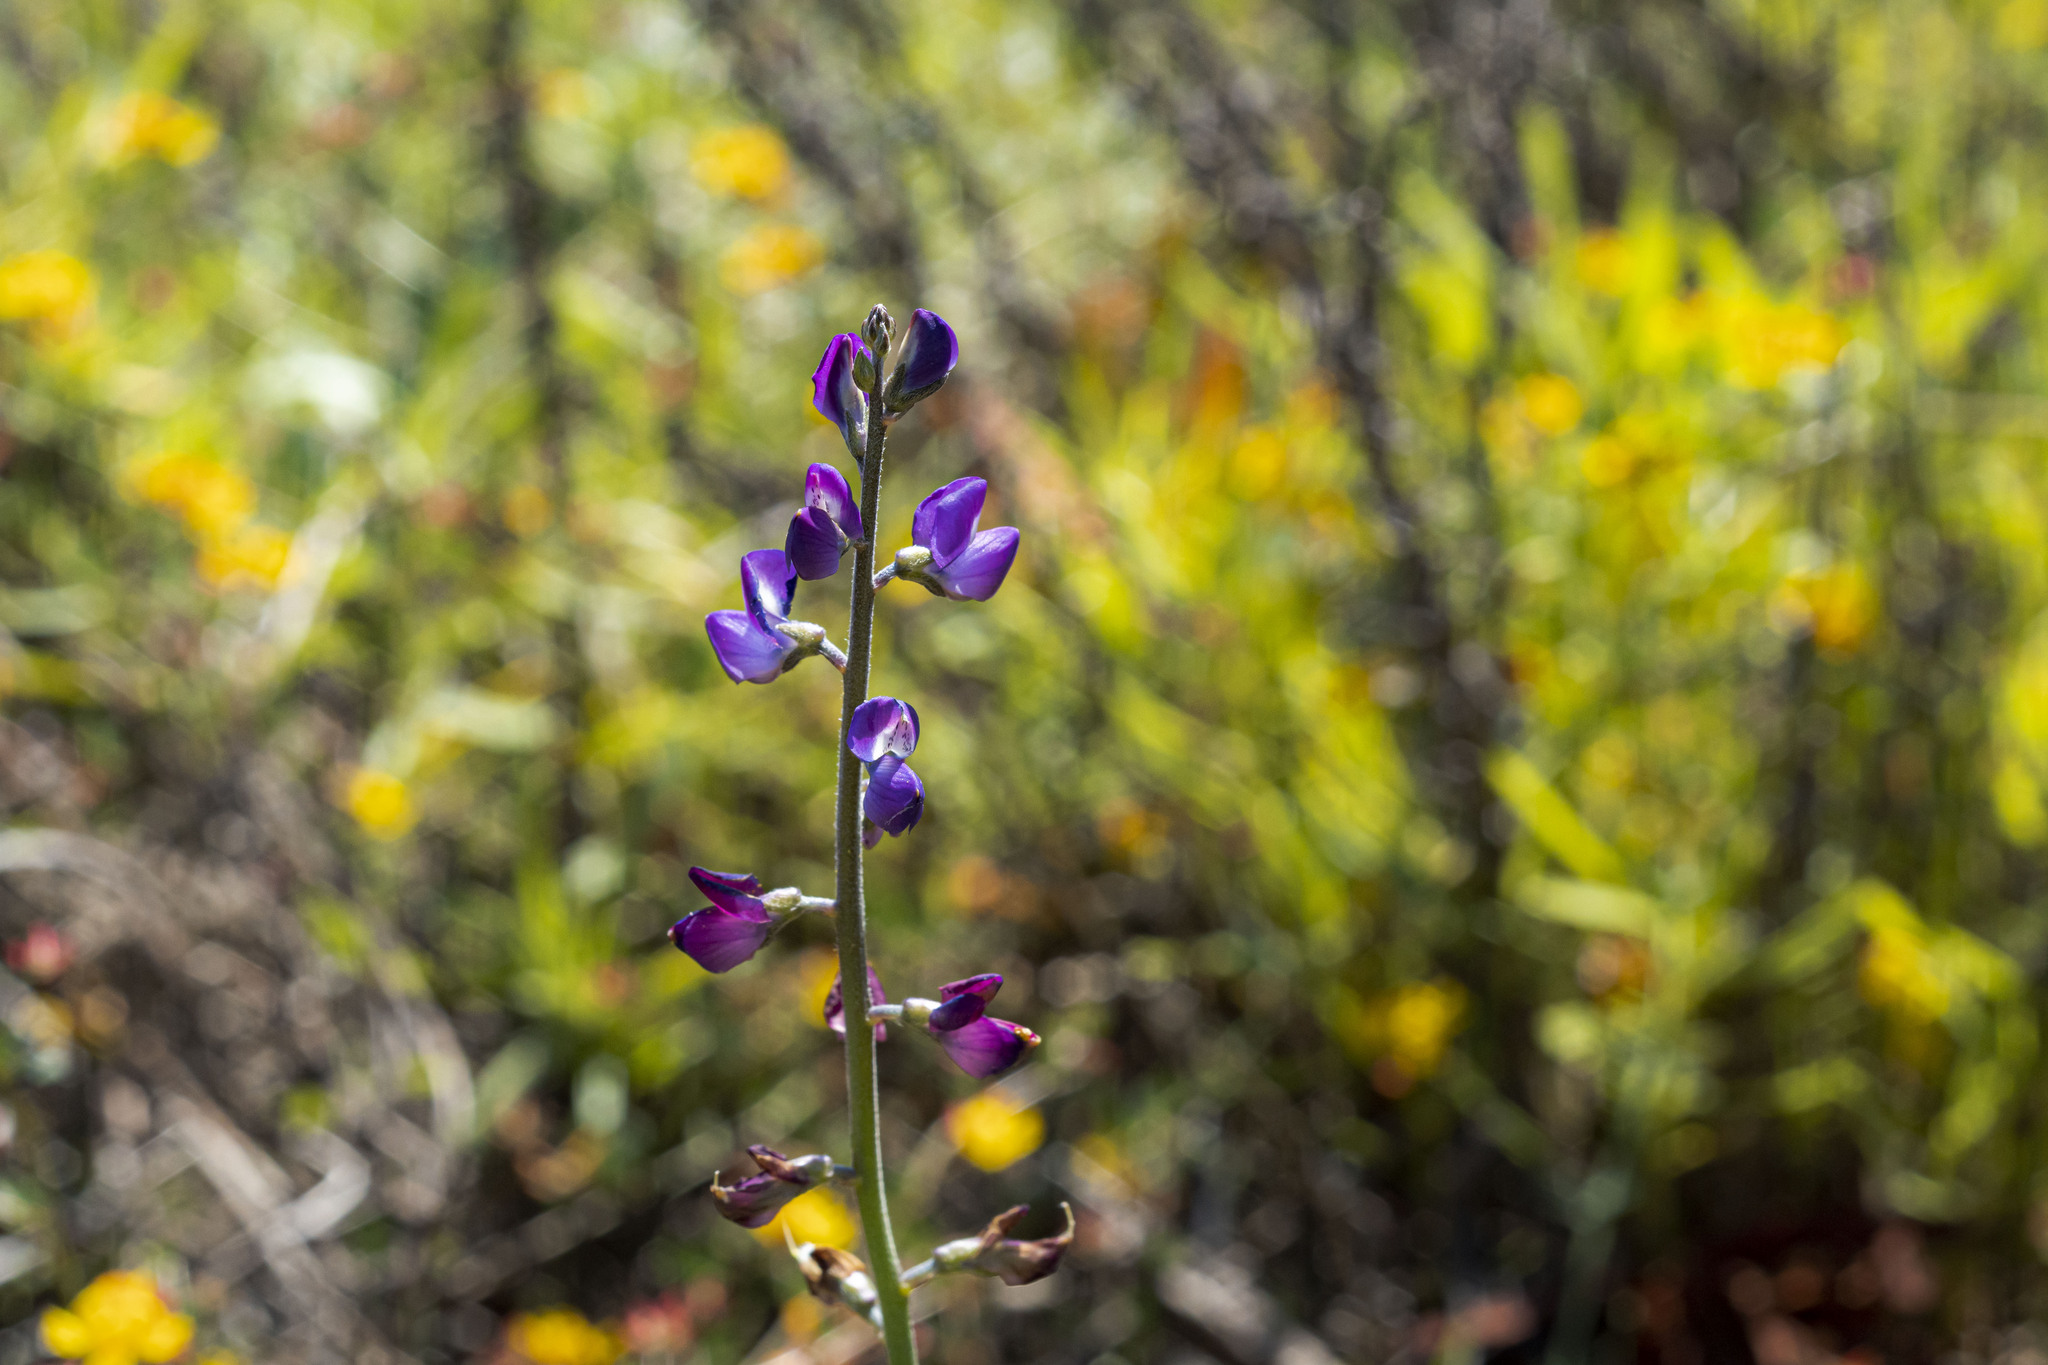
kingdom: Plantae
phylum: Tracheophyta
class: Magnoliopsida
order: Fabales
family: Fabaceae
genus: Lupinus
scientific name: Lupinus truncatus
